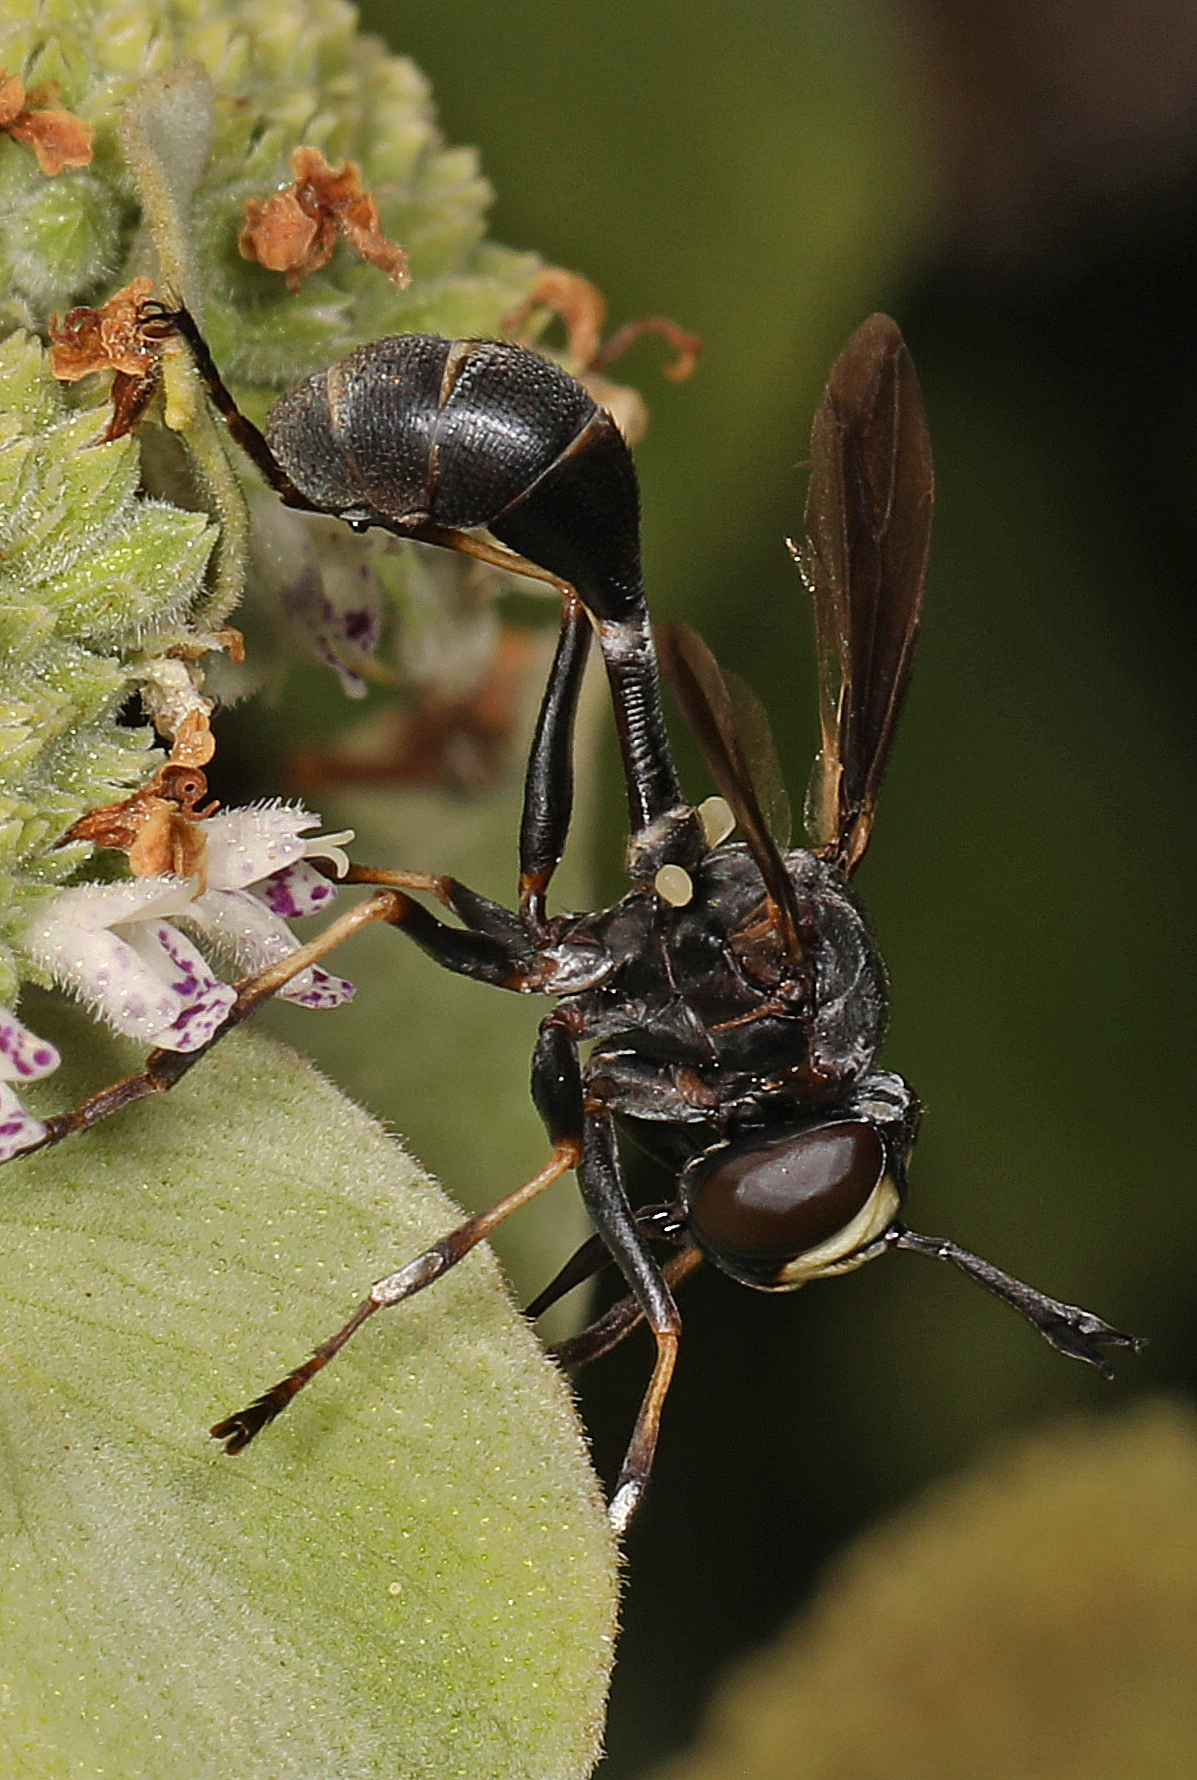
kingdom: Animalia
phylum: Arthropoda
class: Insecta
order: Diptera
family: Conopidae
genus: Physocephala
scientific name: Physocephala tibialis
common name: Common eastern physocephala
